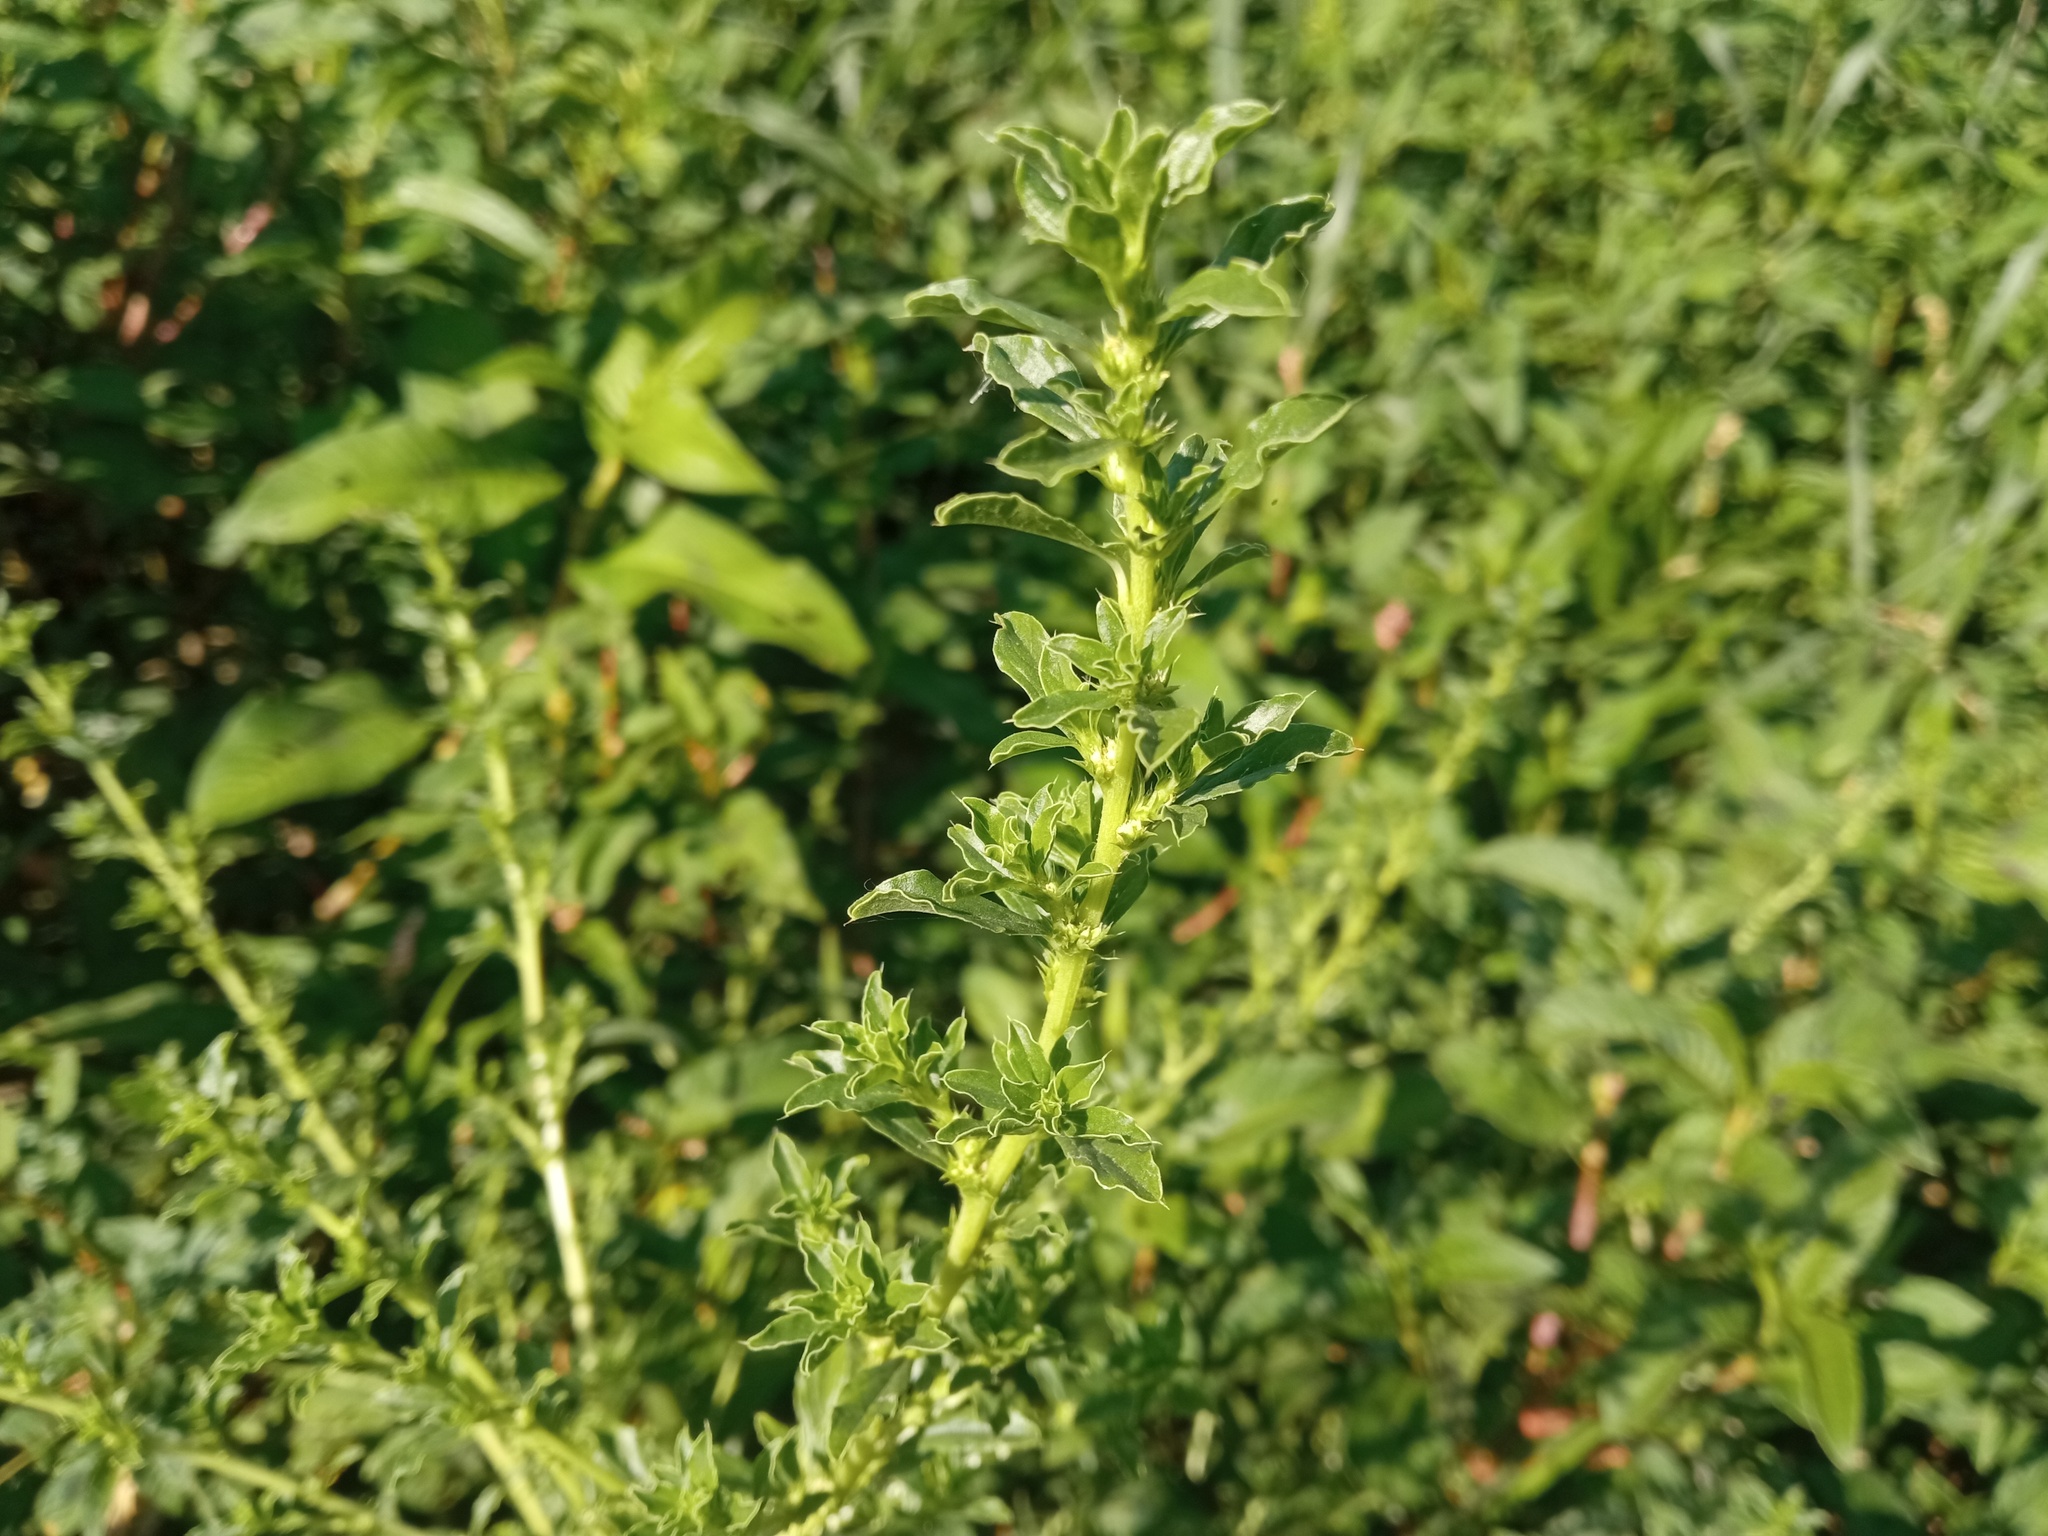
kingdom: Plantae
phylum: Tracheophyta
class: Magnoliopsida
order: Caryophyllales
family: Amaranthaceae
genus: Amaranthus
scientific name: Amaranthus albus
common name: White pigweed
